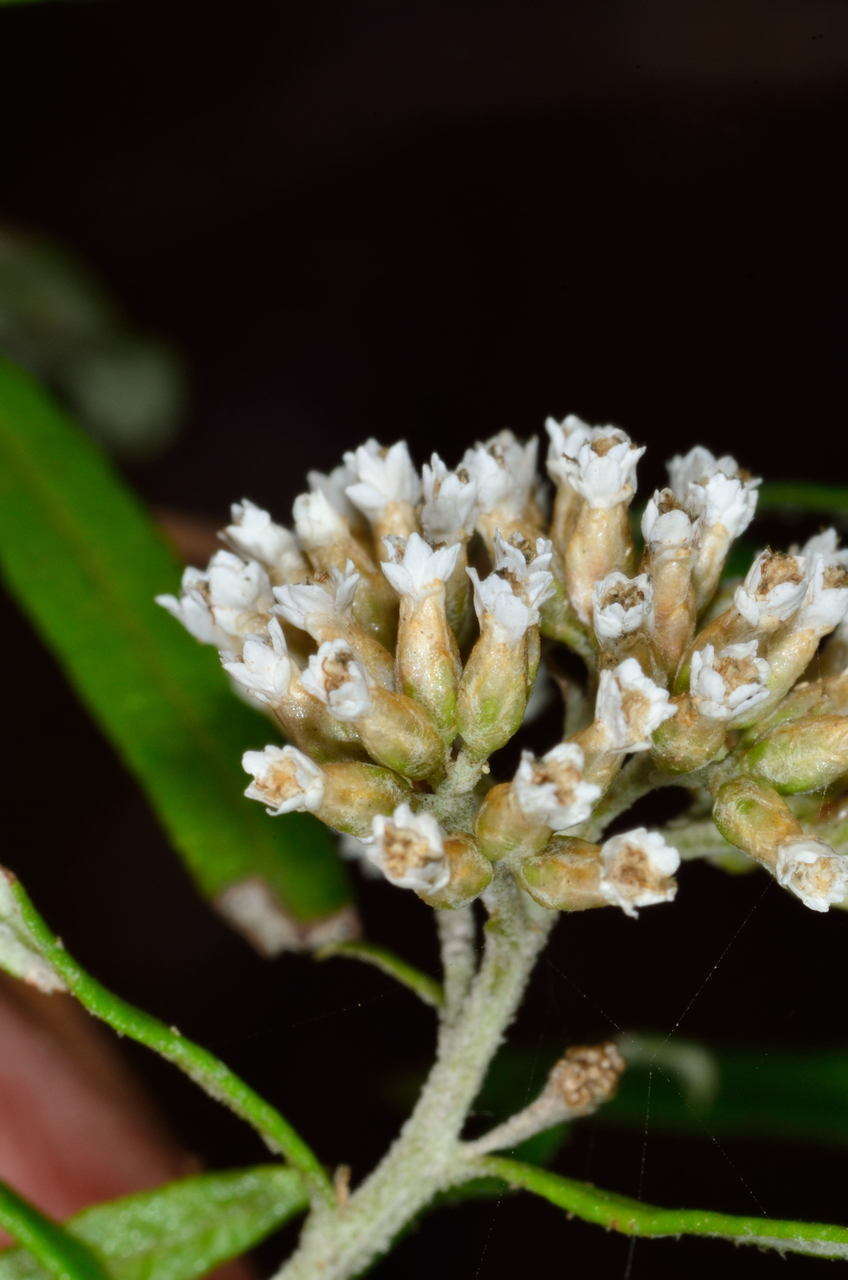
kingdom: Plantae
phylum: Tracheophyta
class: Magnoliopsida
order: Asterales
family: Asteraceae
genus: Ozothamnus
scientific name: Ozothamnus ferrugineus
